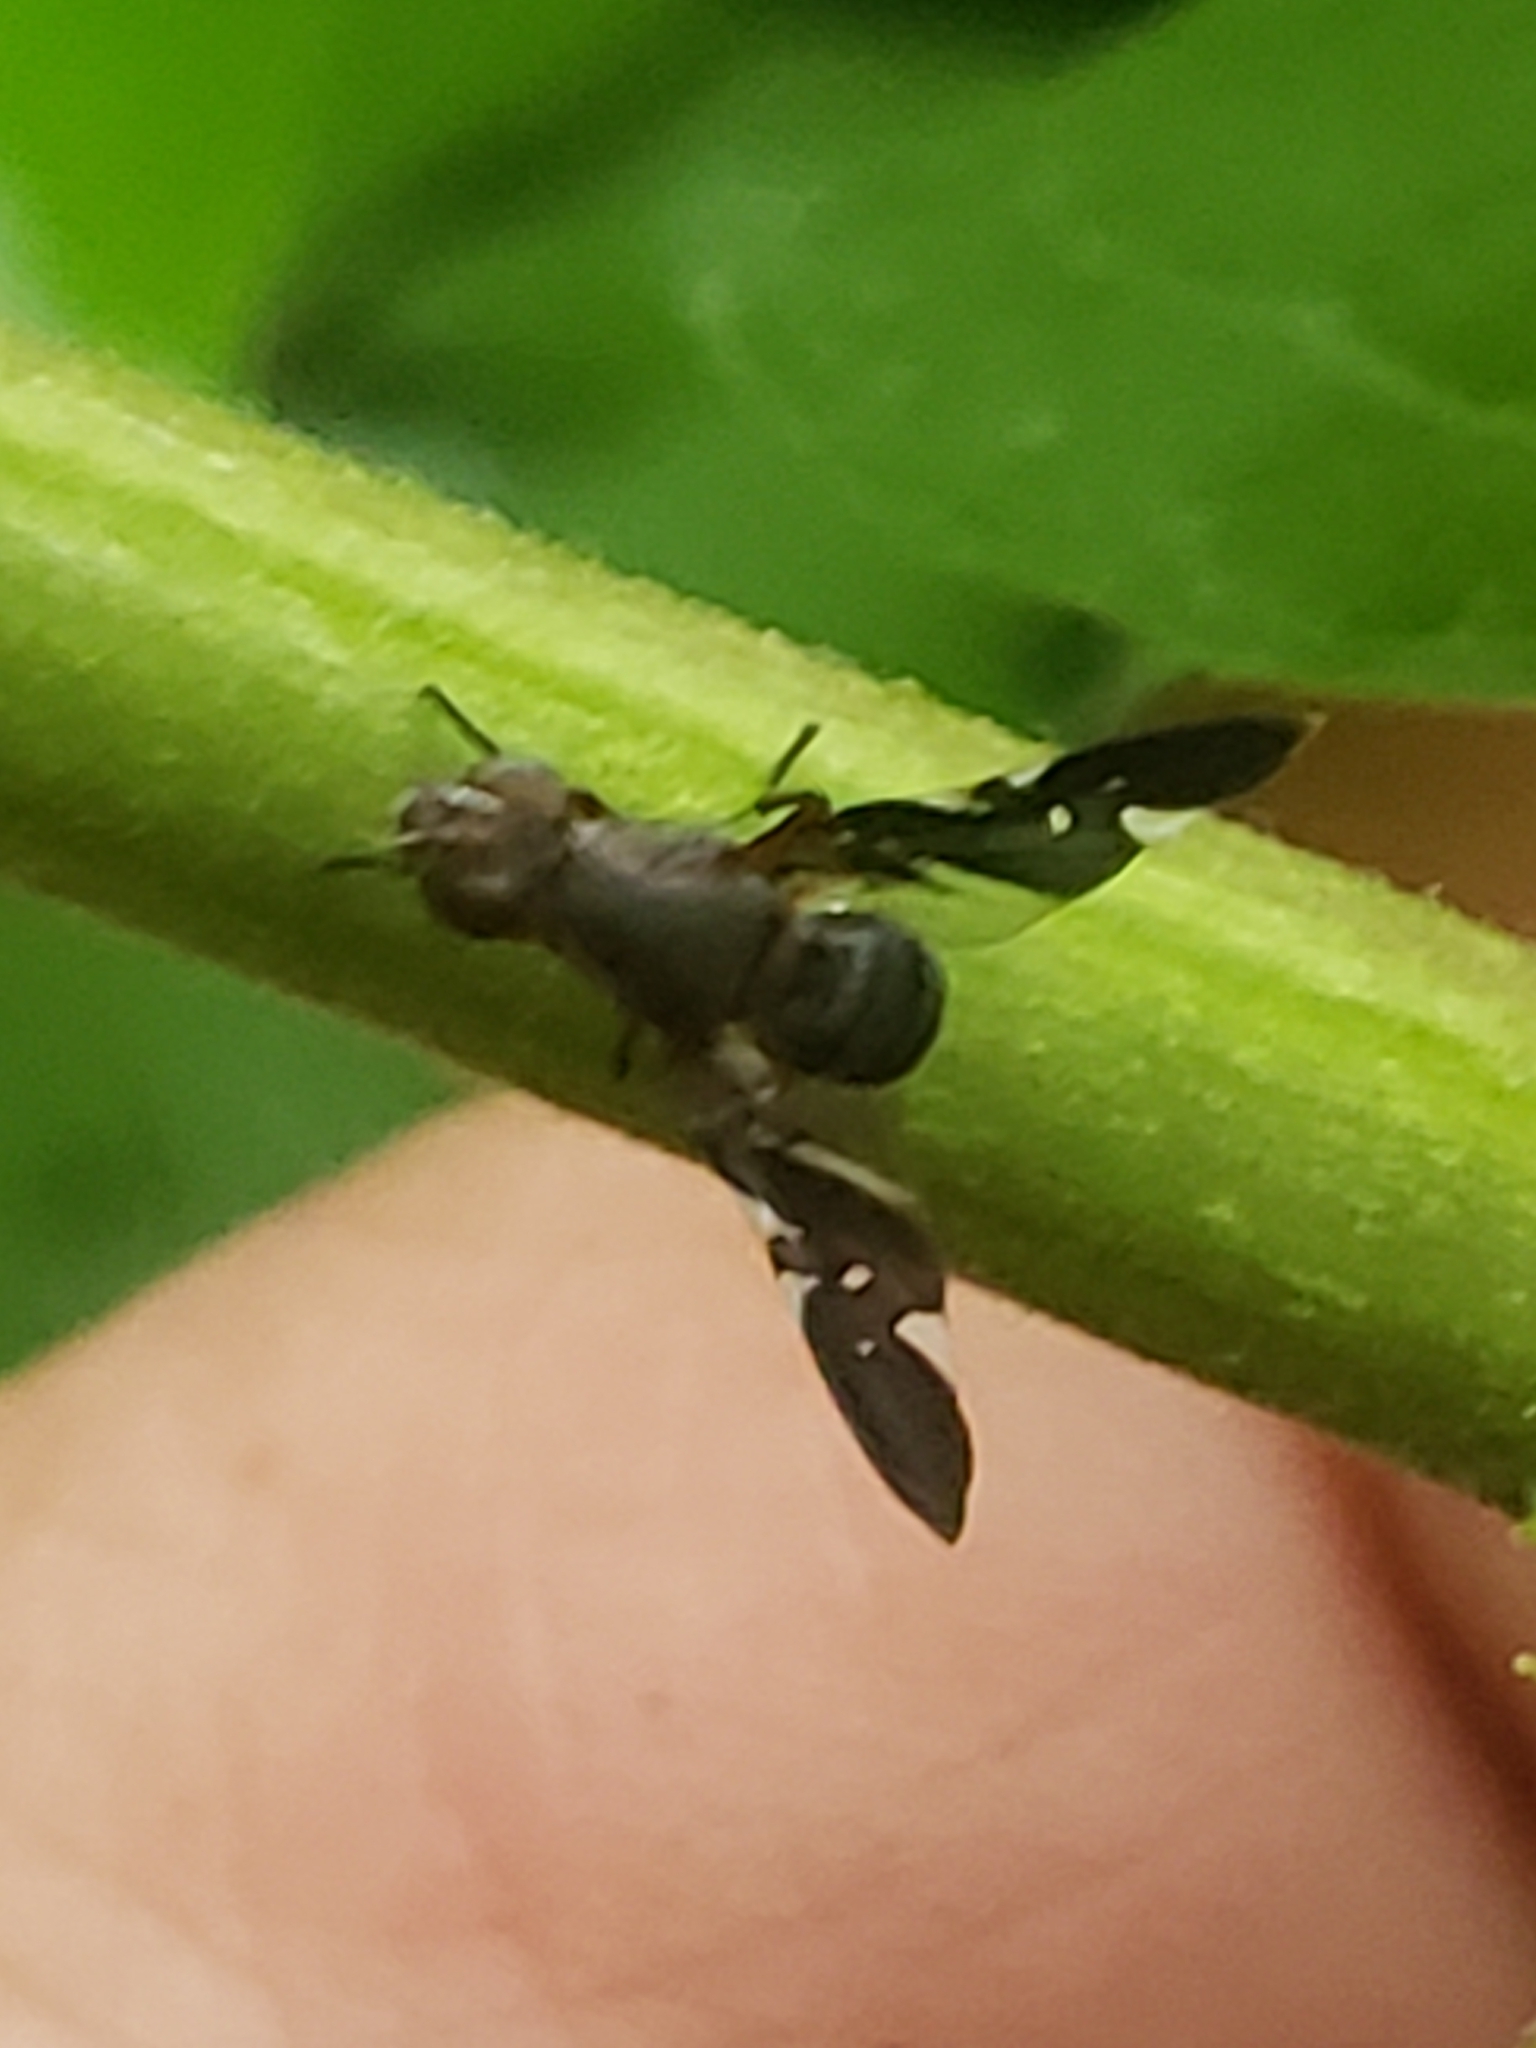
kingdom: Animalia
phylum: Arthropoda
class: Insecta
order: Diptera
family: Ulidiidae
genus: Delphinia
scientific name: Delphinia picta
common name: Common picture-winged fly
